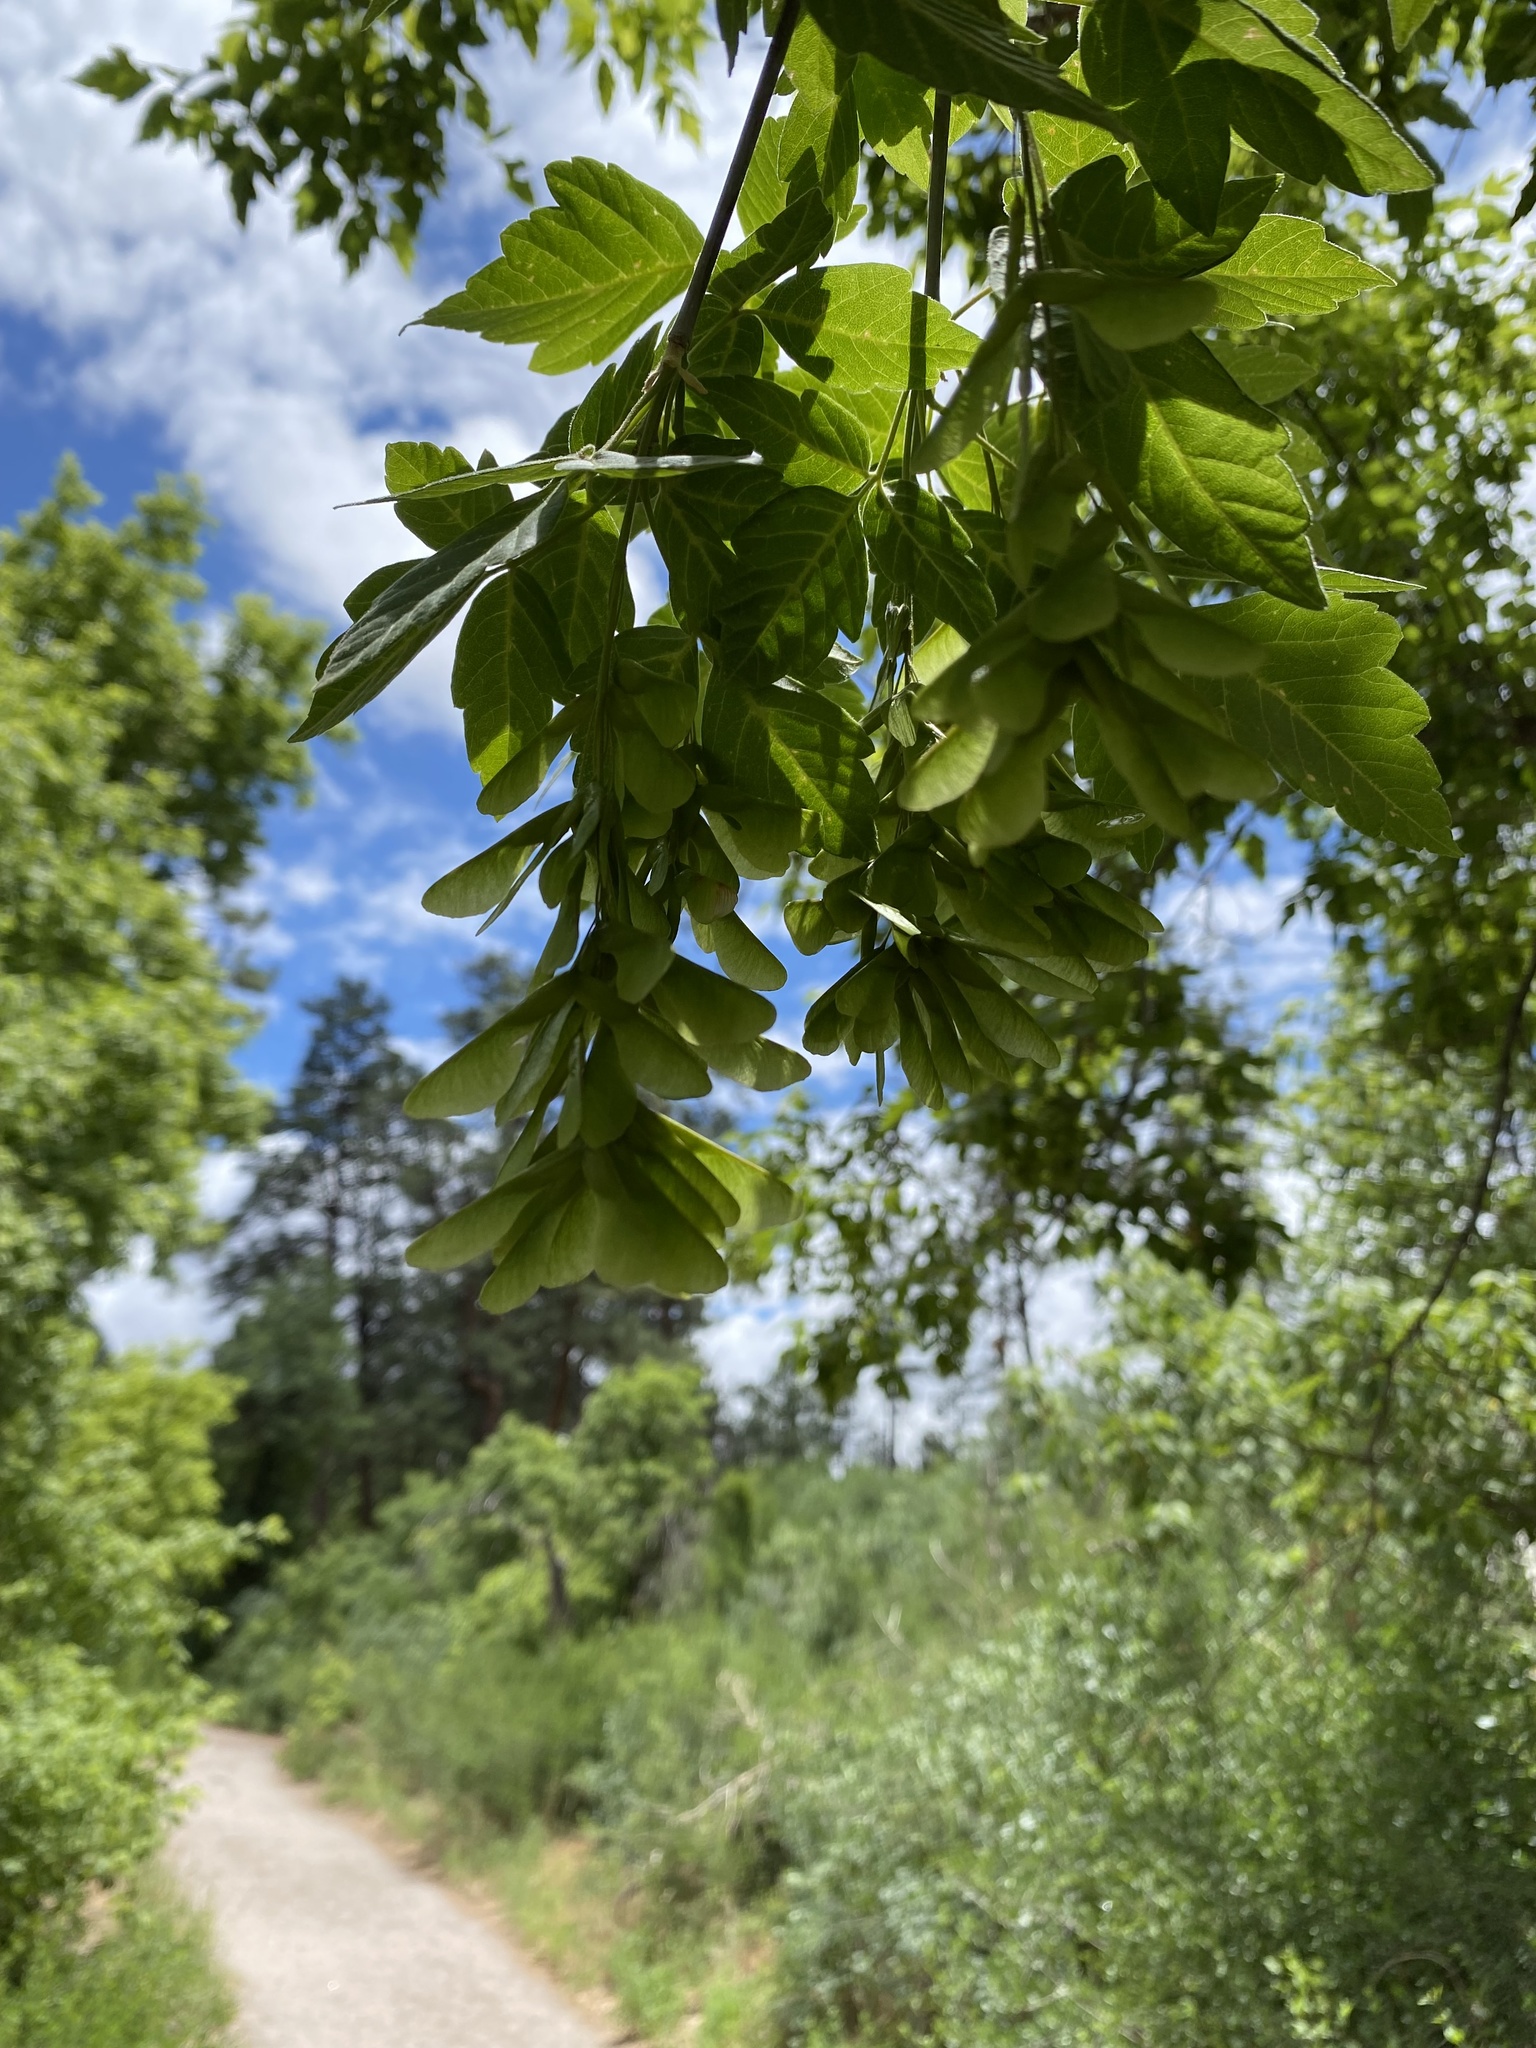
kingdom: Plantae
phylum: Tracheophyta
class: Magnoliopsida
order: Sapindales
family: Sapindaceae
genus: Acer
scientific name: Acer negundo
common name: Ashleaf maple
